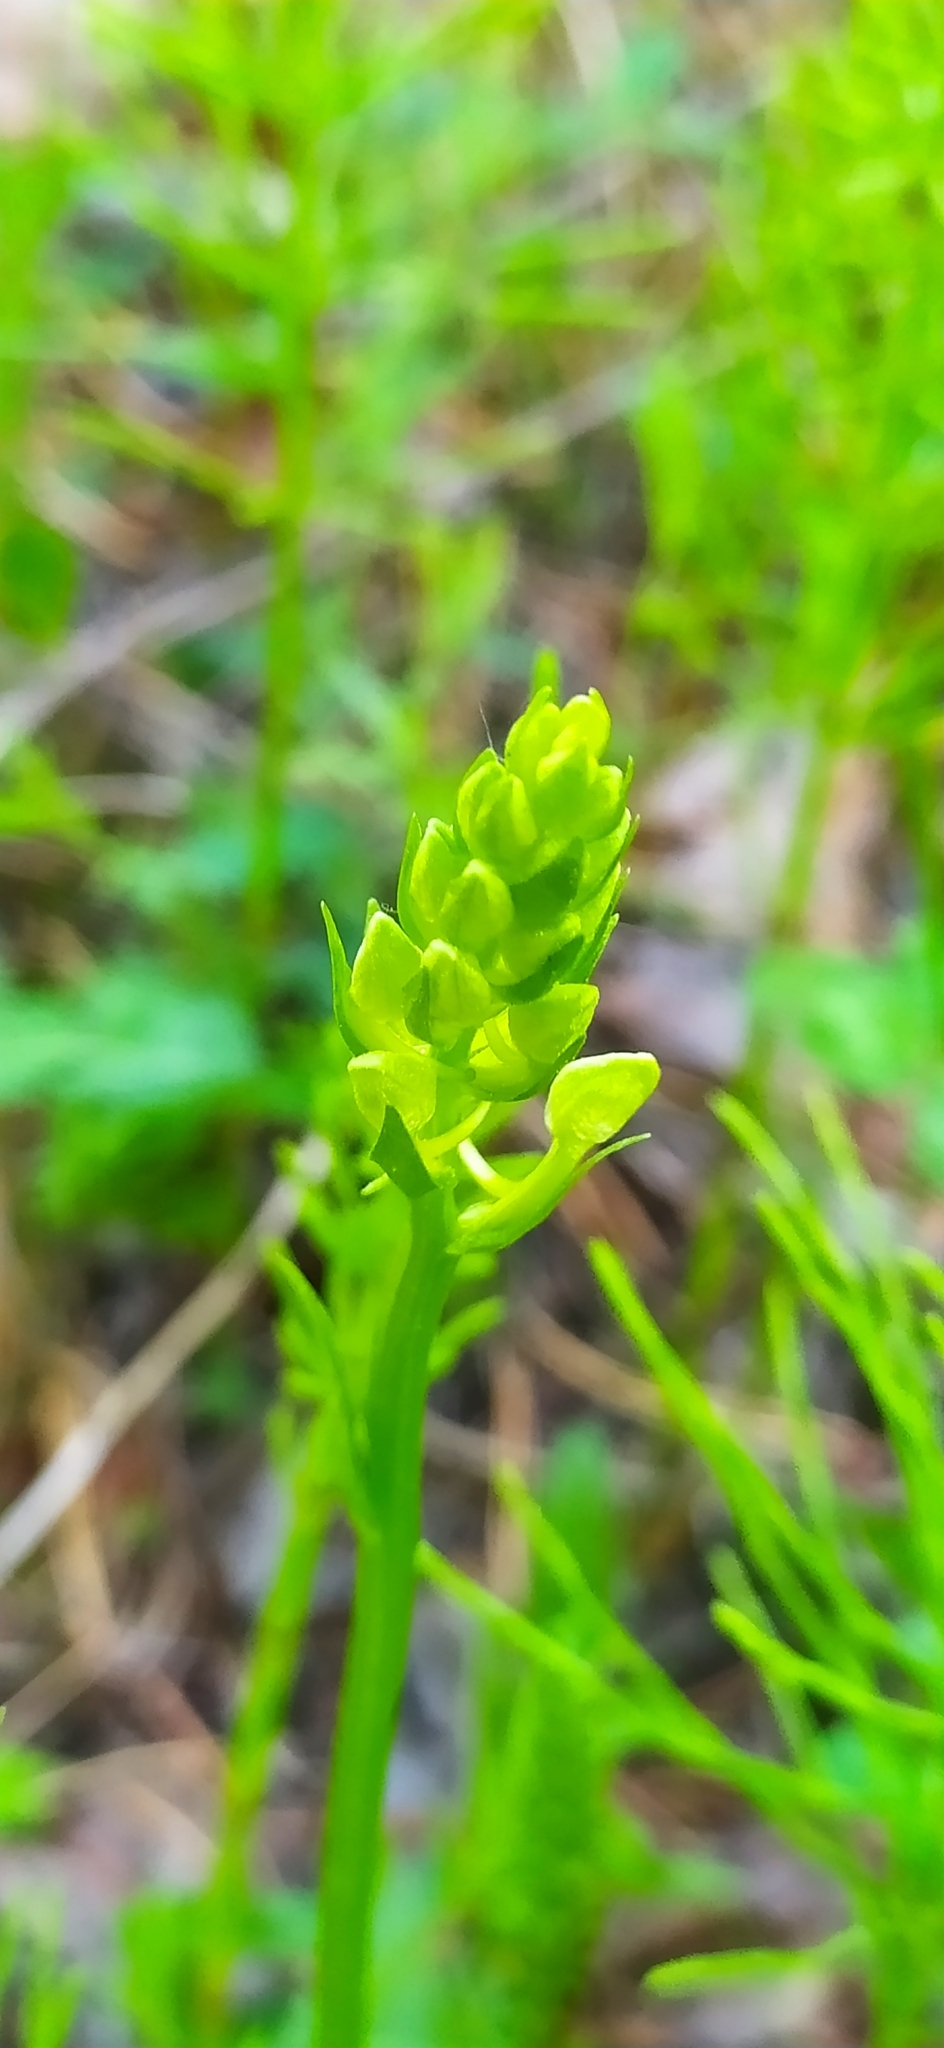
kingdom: Plantae
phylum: Tracheophyta
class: Liliopsida
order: Asparagales
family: Orchidaceae
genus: Platanthera
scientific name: Platanthera bifolia
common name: Lesser butterfly-orchid
